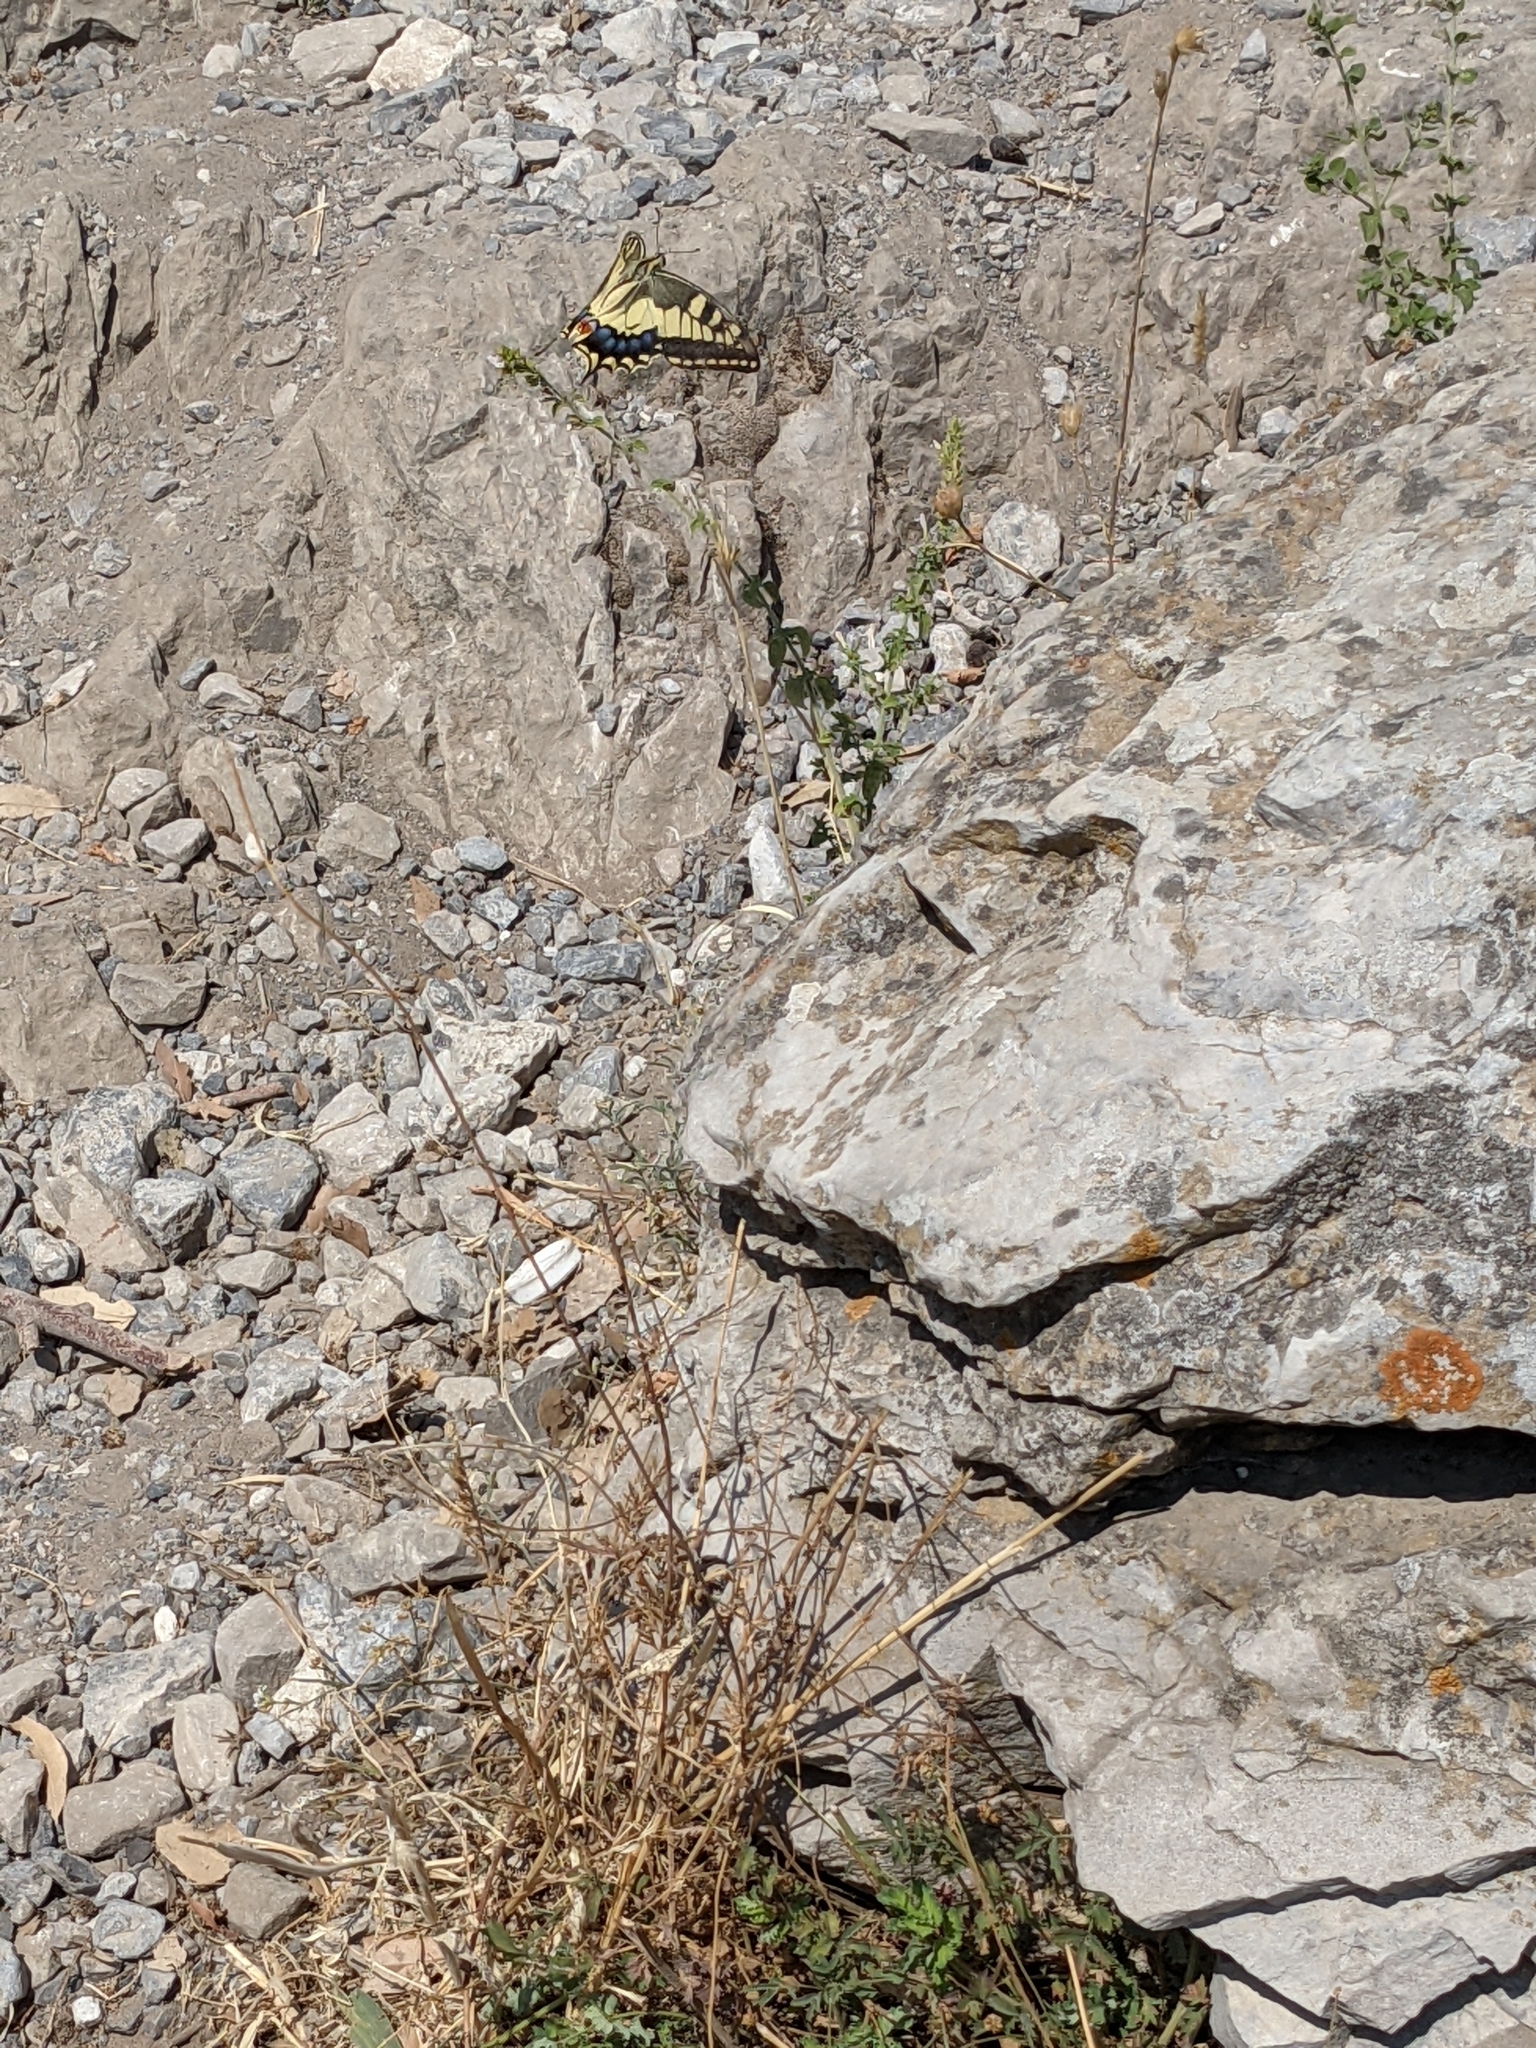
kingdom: Animalia
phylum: Arthropoda
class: Insecta
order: Lepidoptera
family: Papilionidae
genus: Papilio
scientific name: Papilio machaon
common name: Swallowtail
